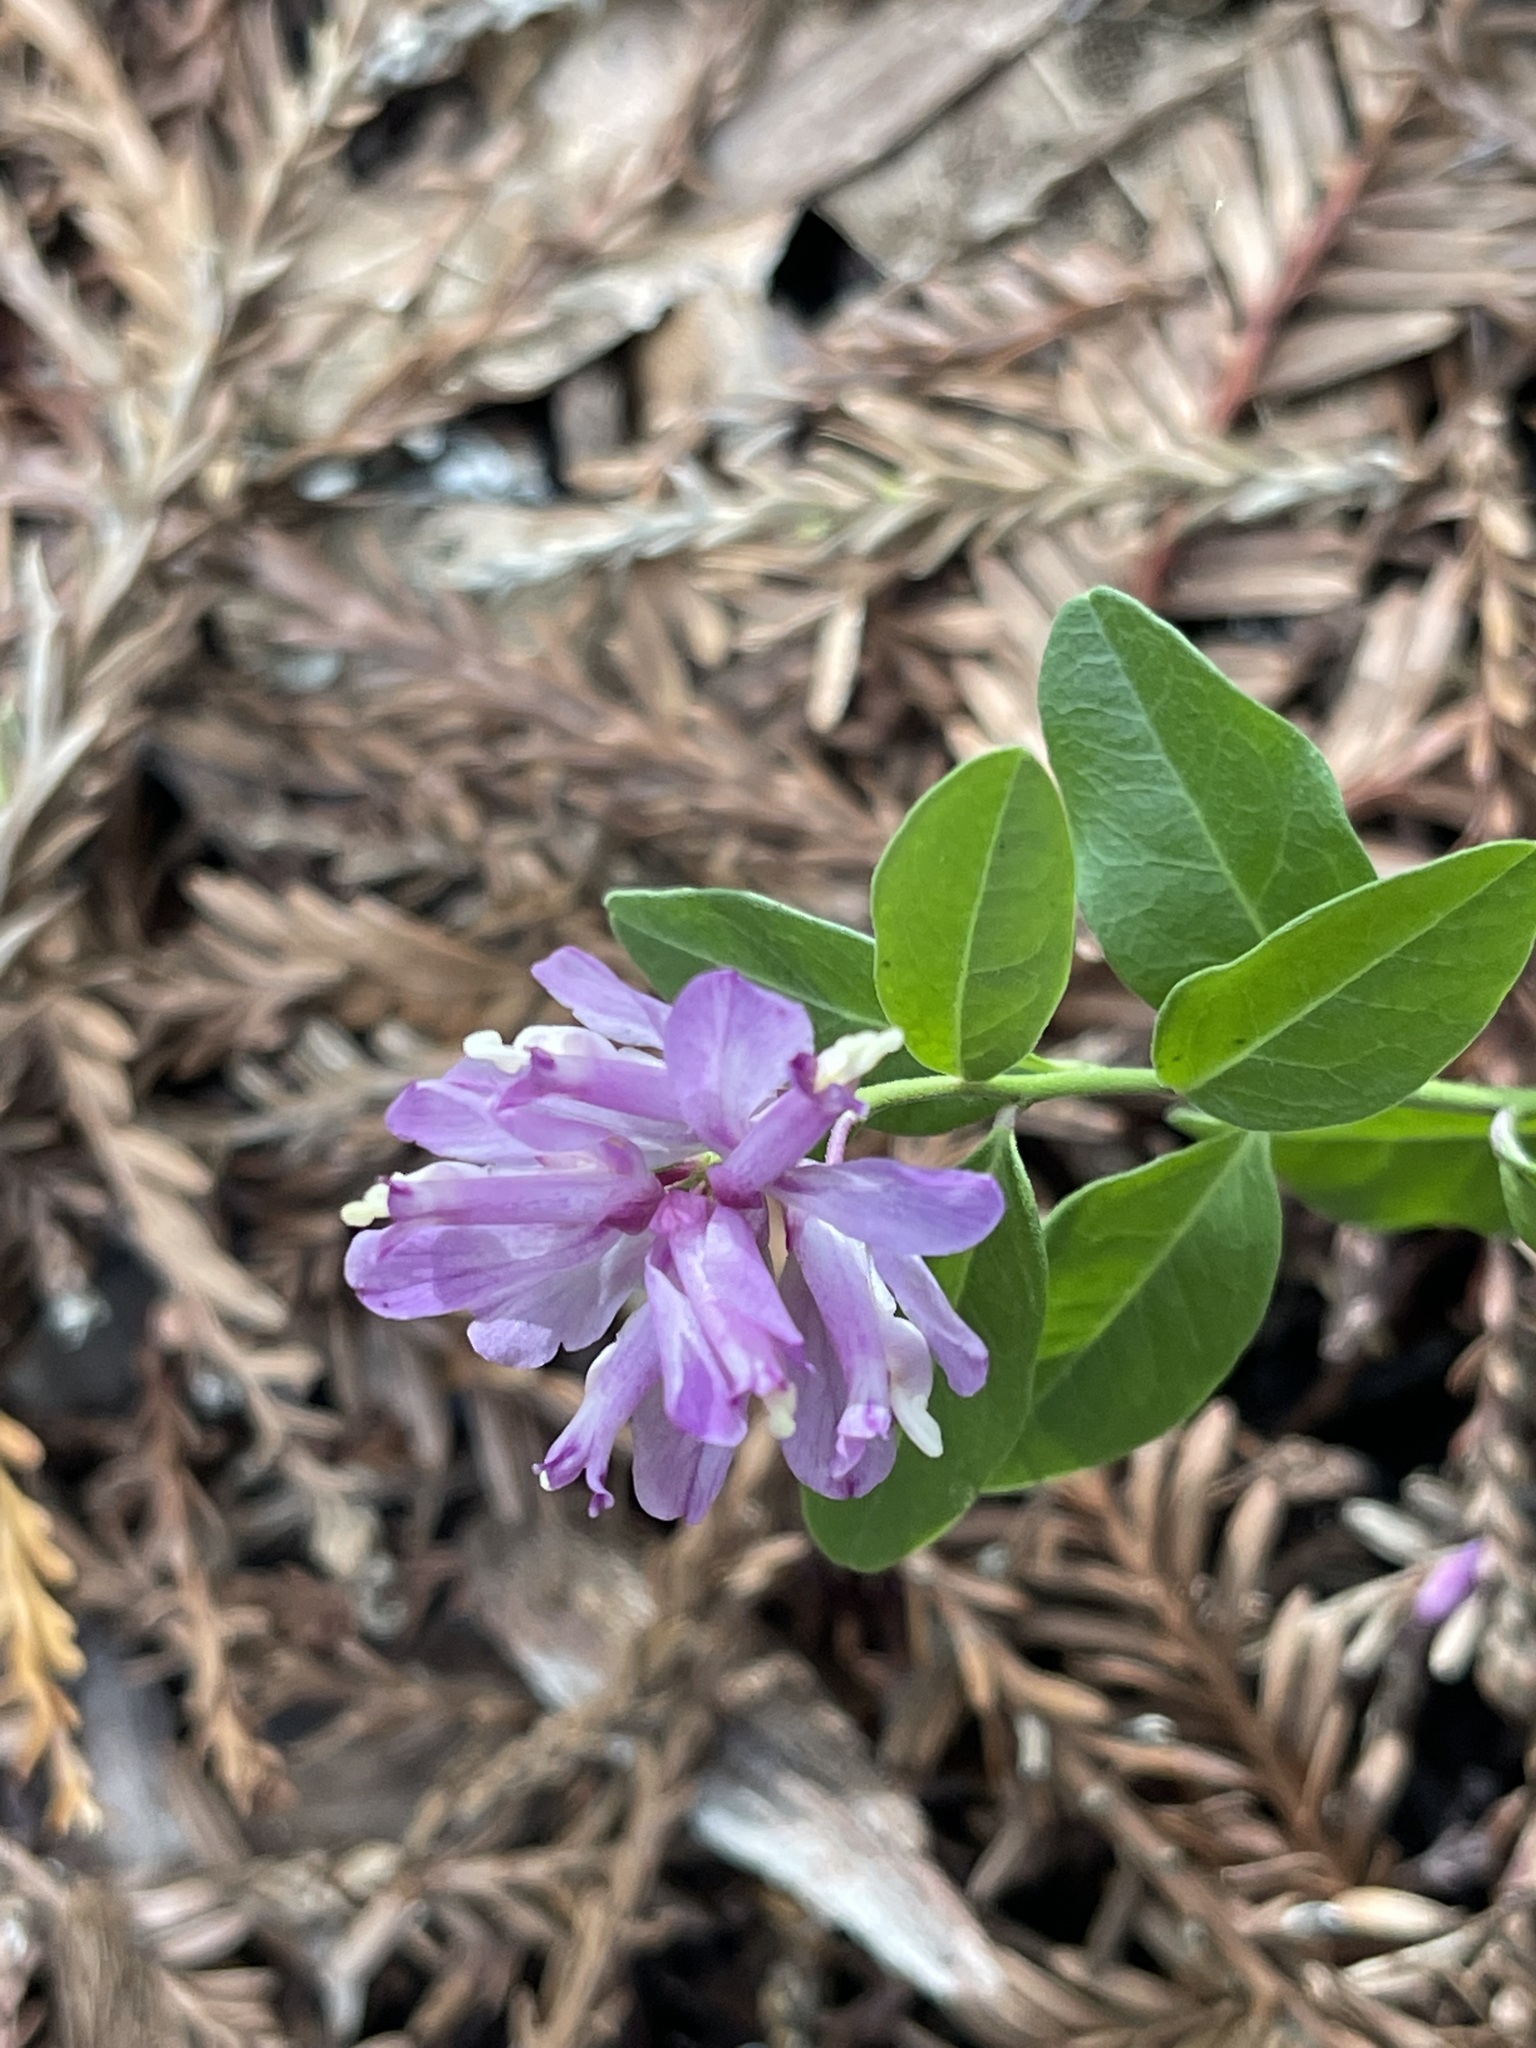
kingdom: Plantae
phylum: Tracheophyta
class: Magnoliopsida
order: Fabales
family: Polygalaceae
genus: Rhinotropis
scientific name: Rhinotropis californica
